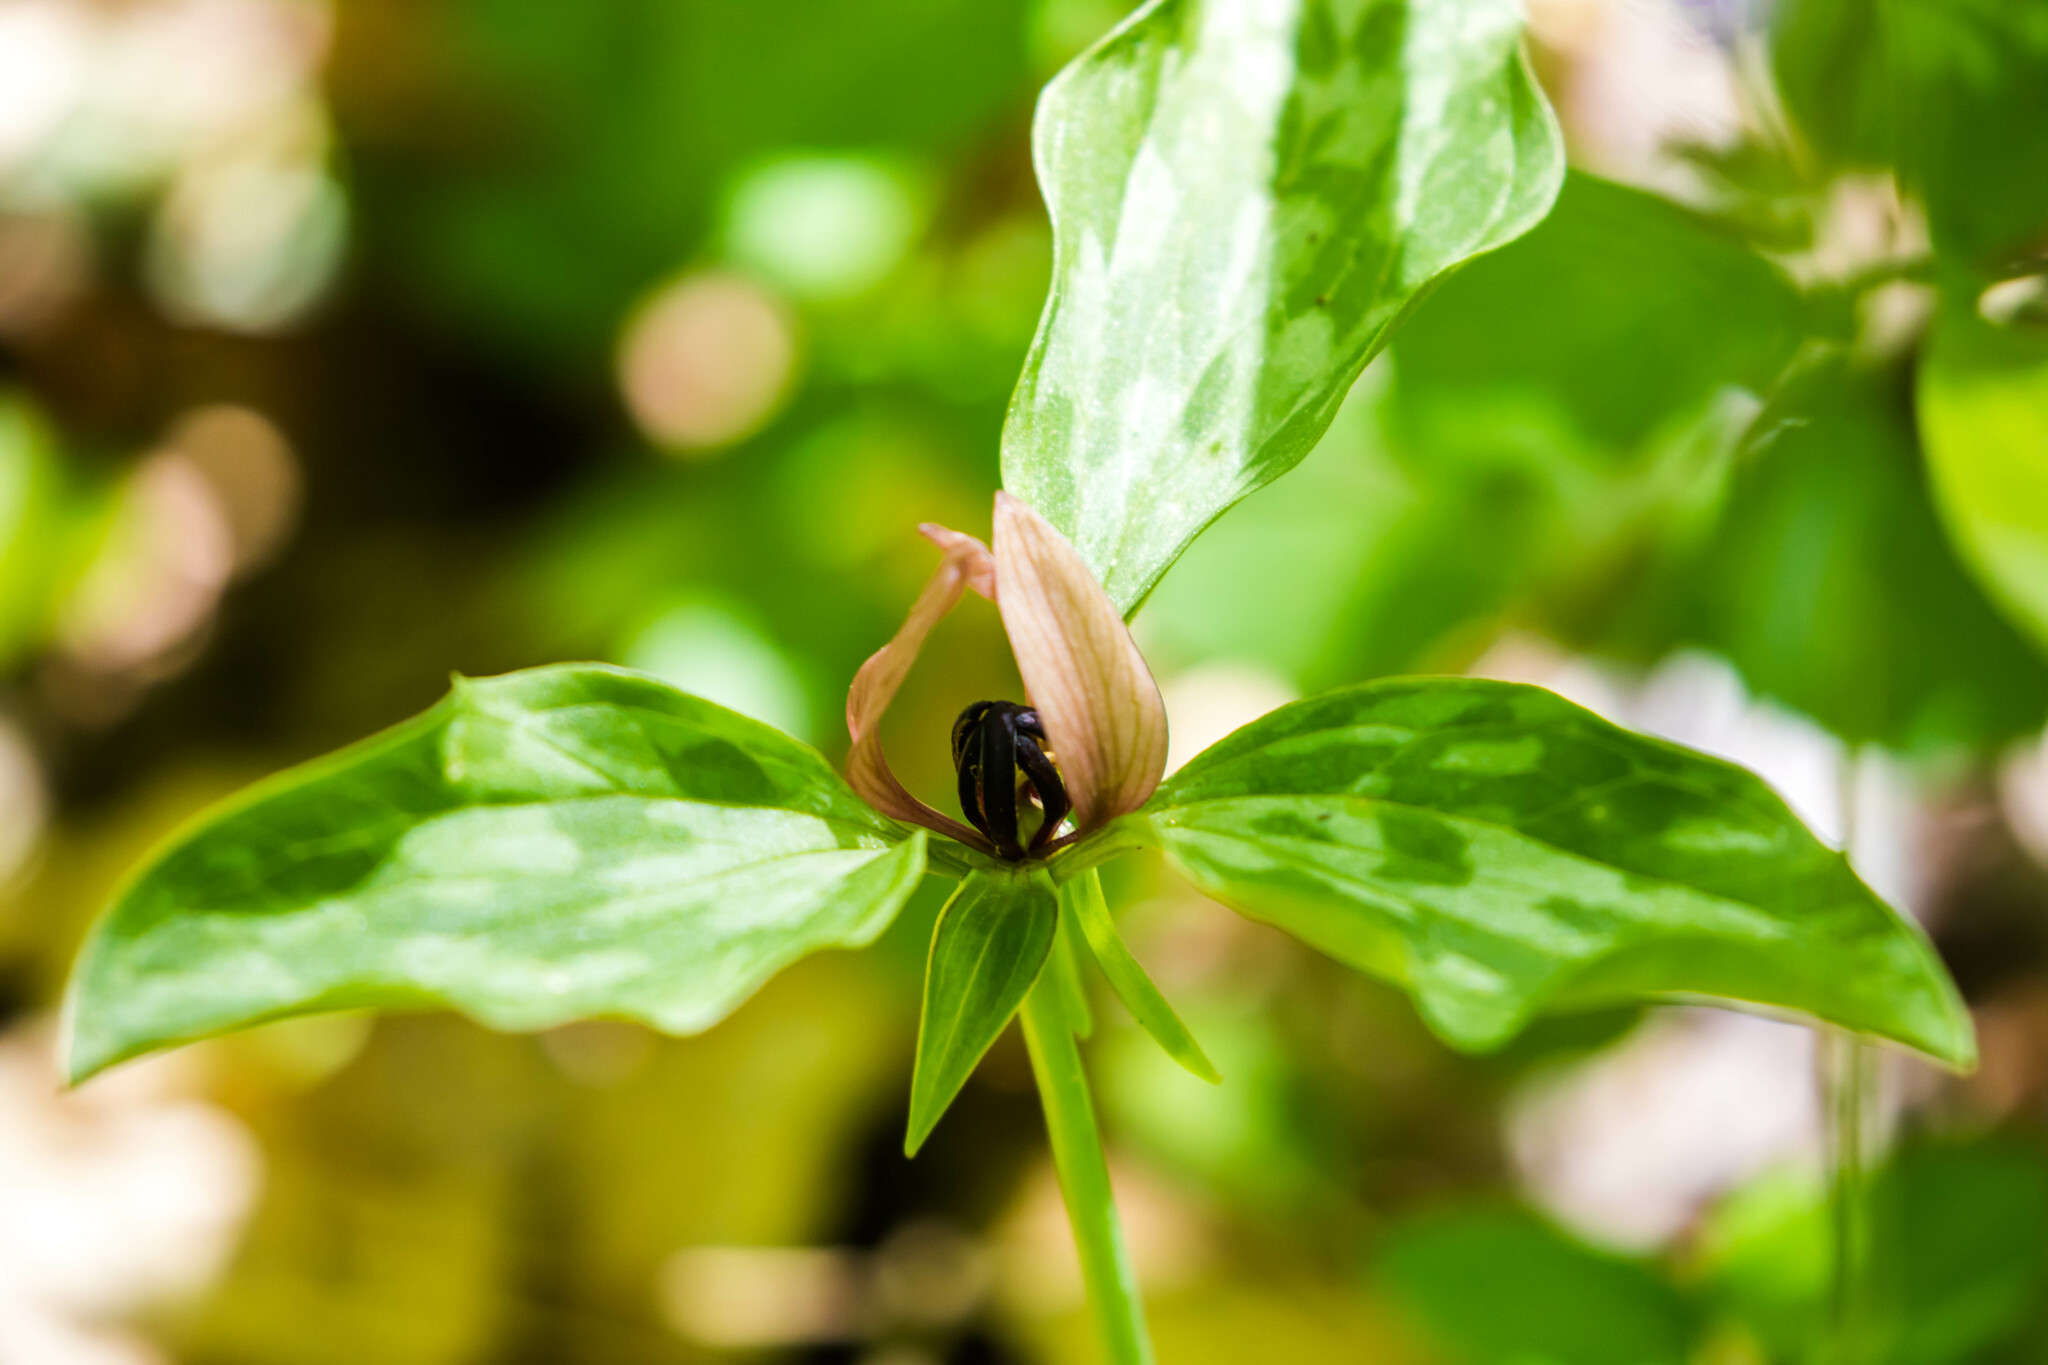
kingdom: Plantae
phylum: Tracheophyta
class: Liliopsida
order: Liliales
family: Melanthiaceae
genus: Trillium
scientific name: Trillium recurvatum
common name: Bloody butcher
